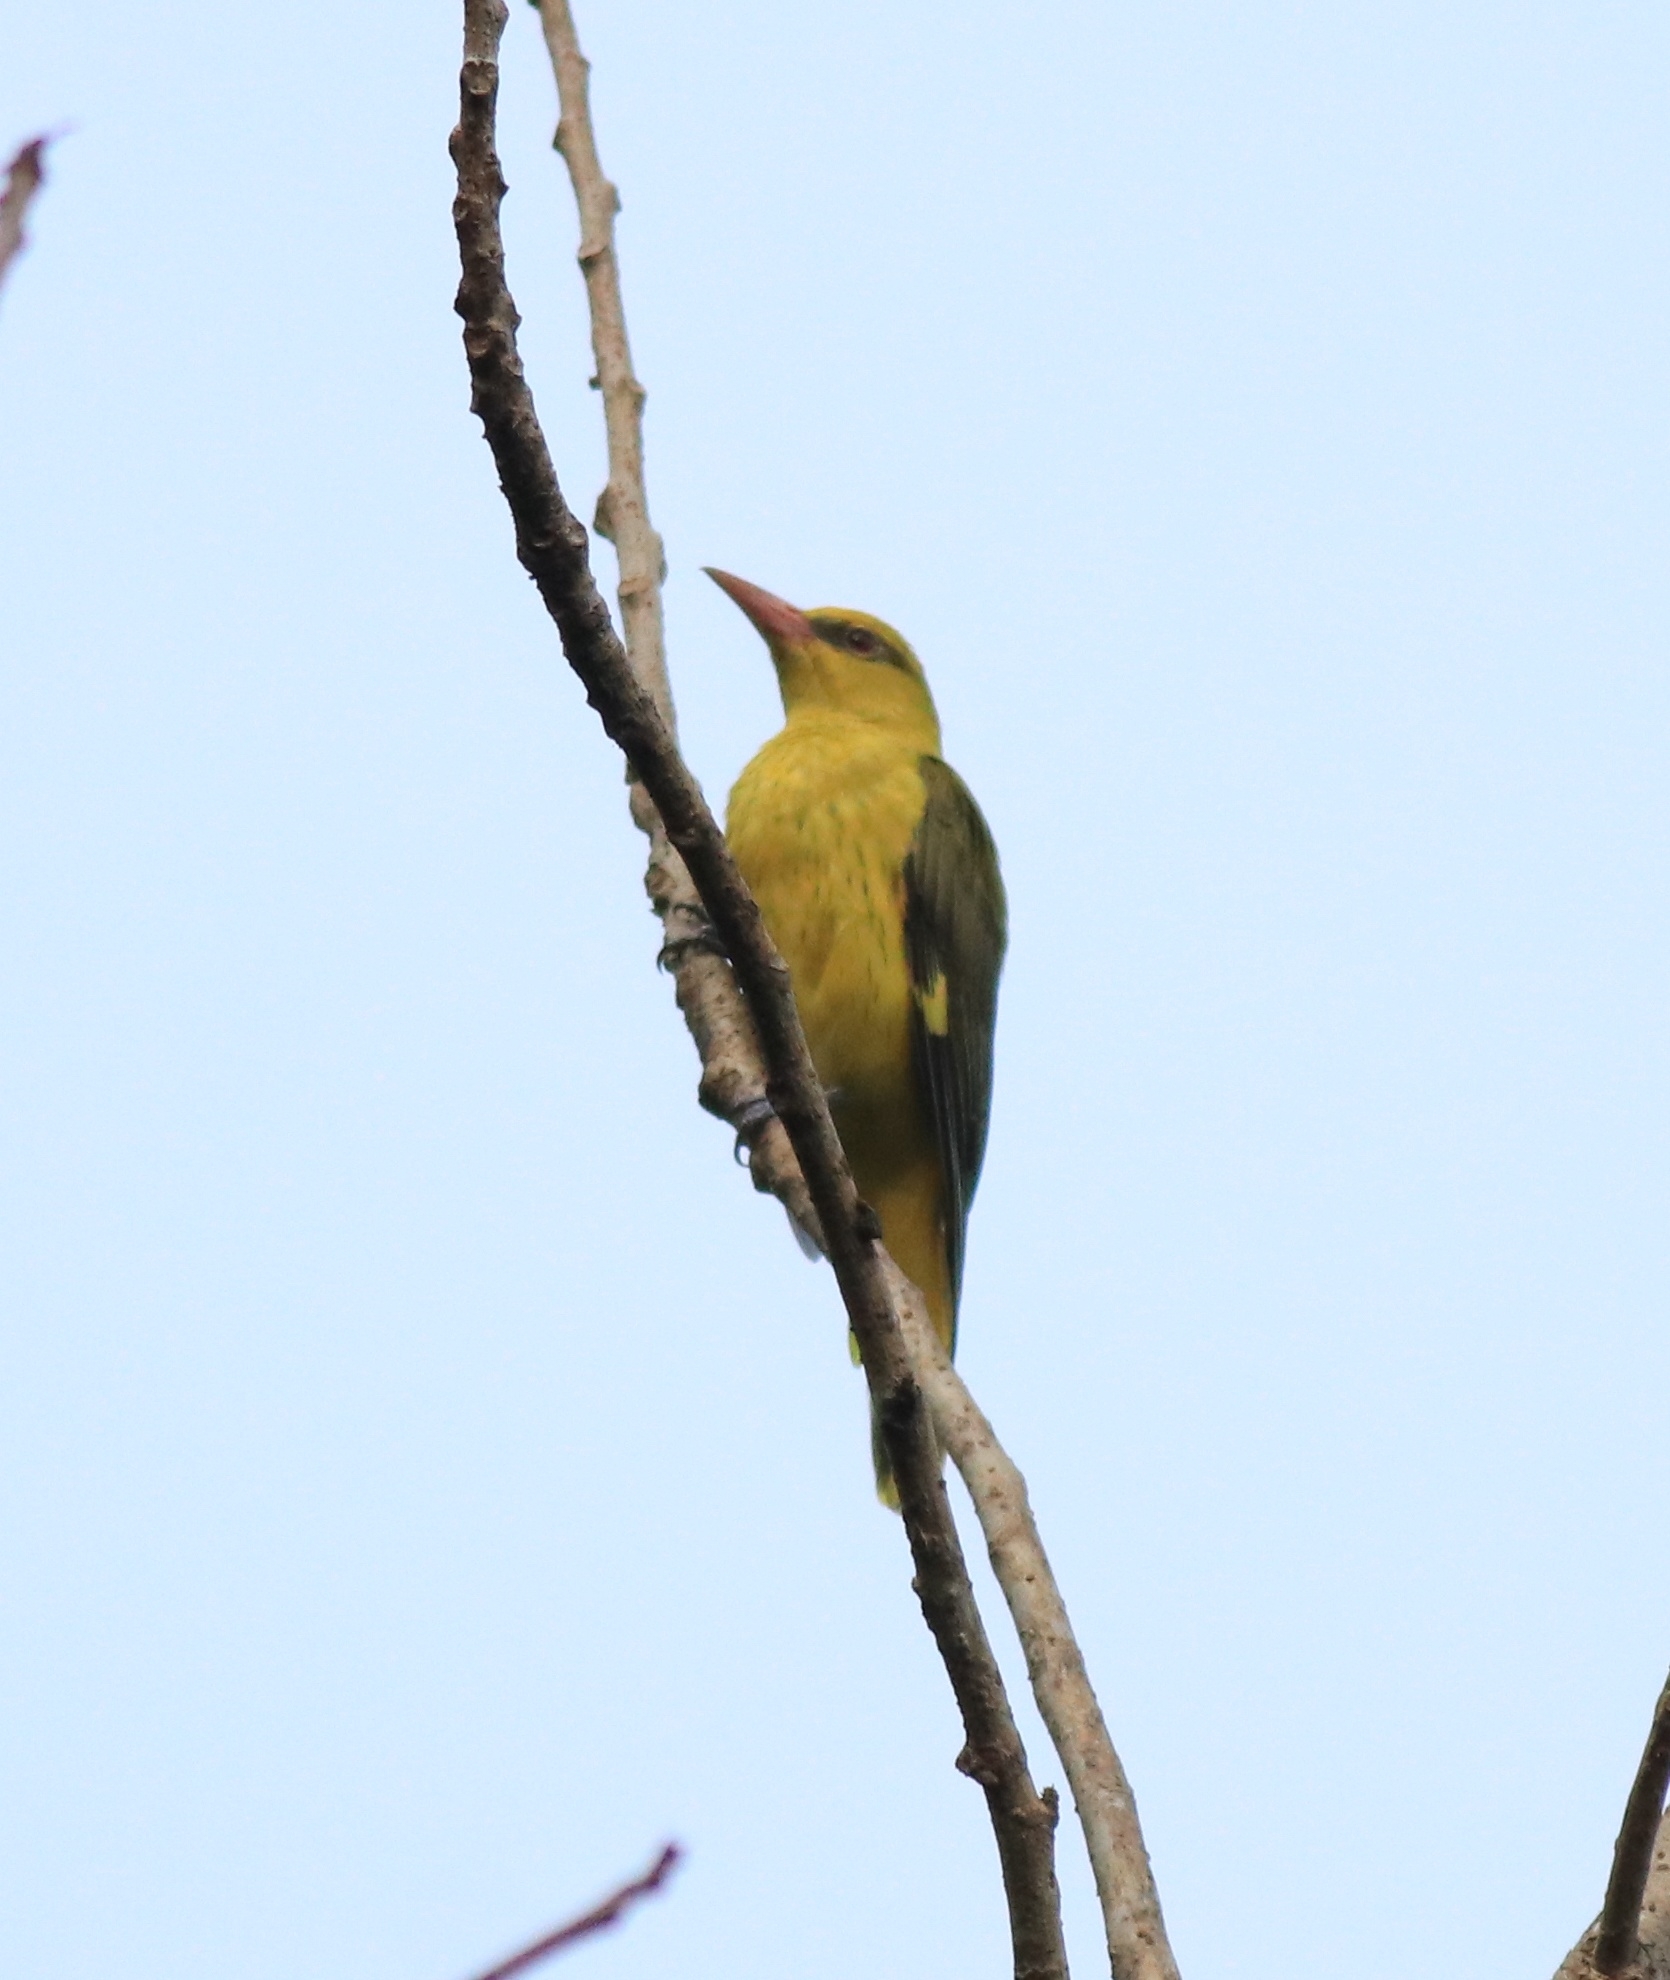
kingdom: Animalia
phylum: Chordata
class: Aves
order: Passeriformes
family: Oriolidae
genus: Oriolus
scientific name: Oriolus kundoo
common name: Indian golden oriole
